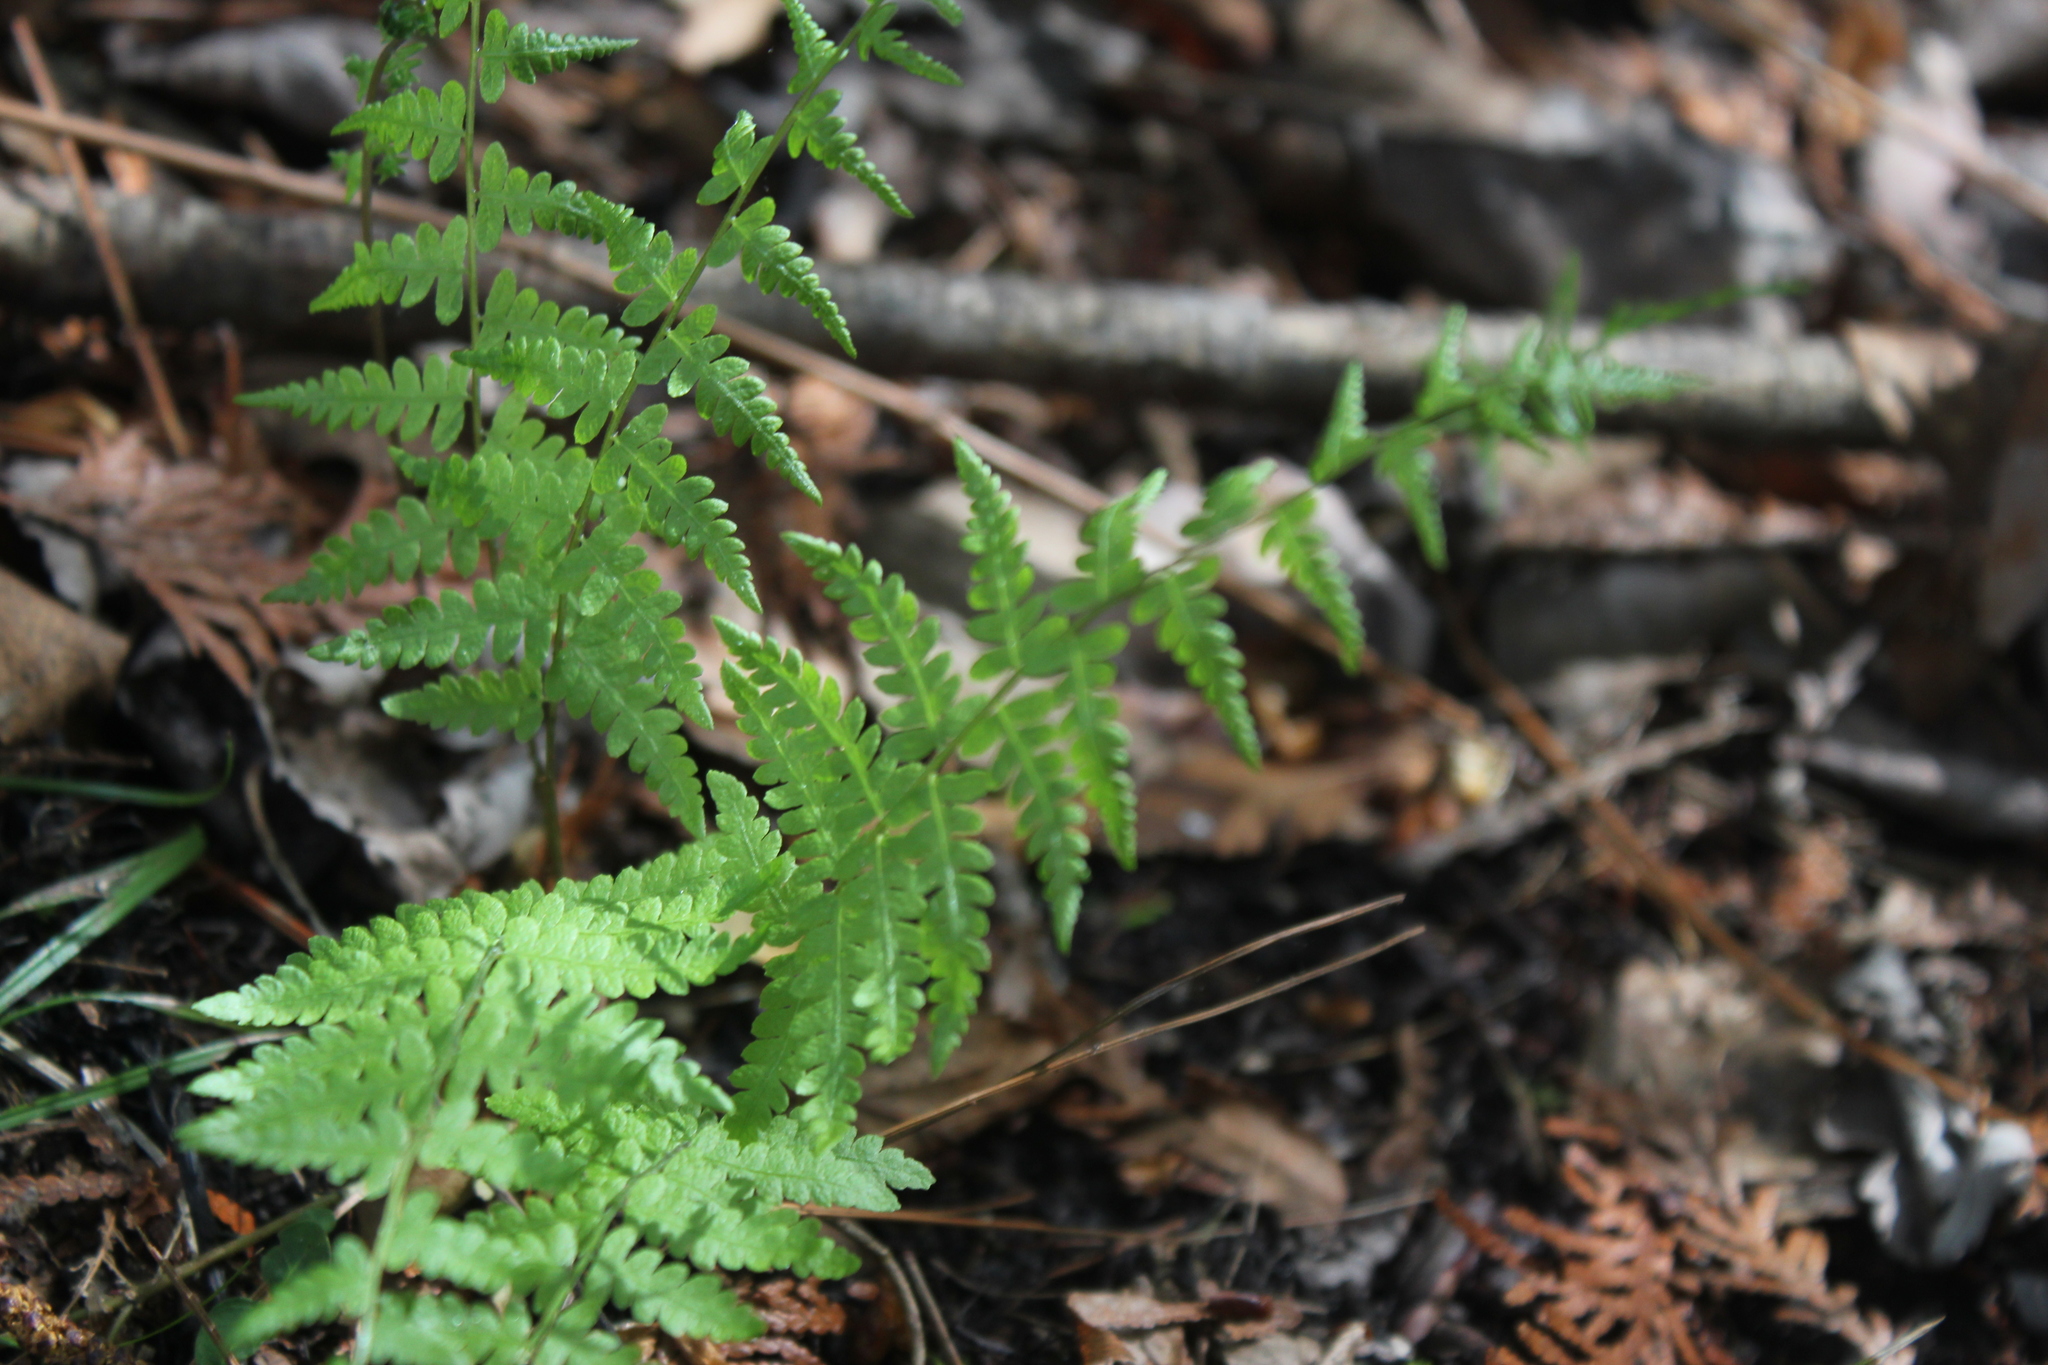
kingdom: Plantae
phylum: Tracheophyta
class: Polypodiopsida
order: Polypodiales
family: Thelypteridaceae
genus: Thelypteris
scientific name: Thelypteris palustris
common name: Marsh fern
